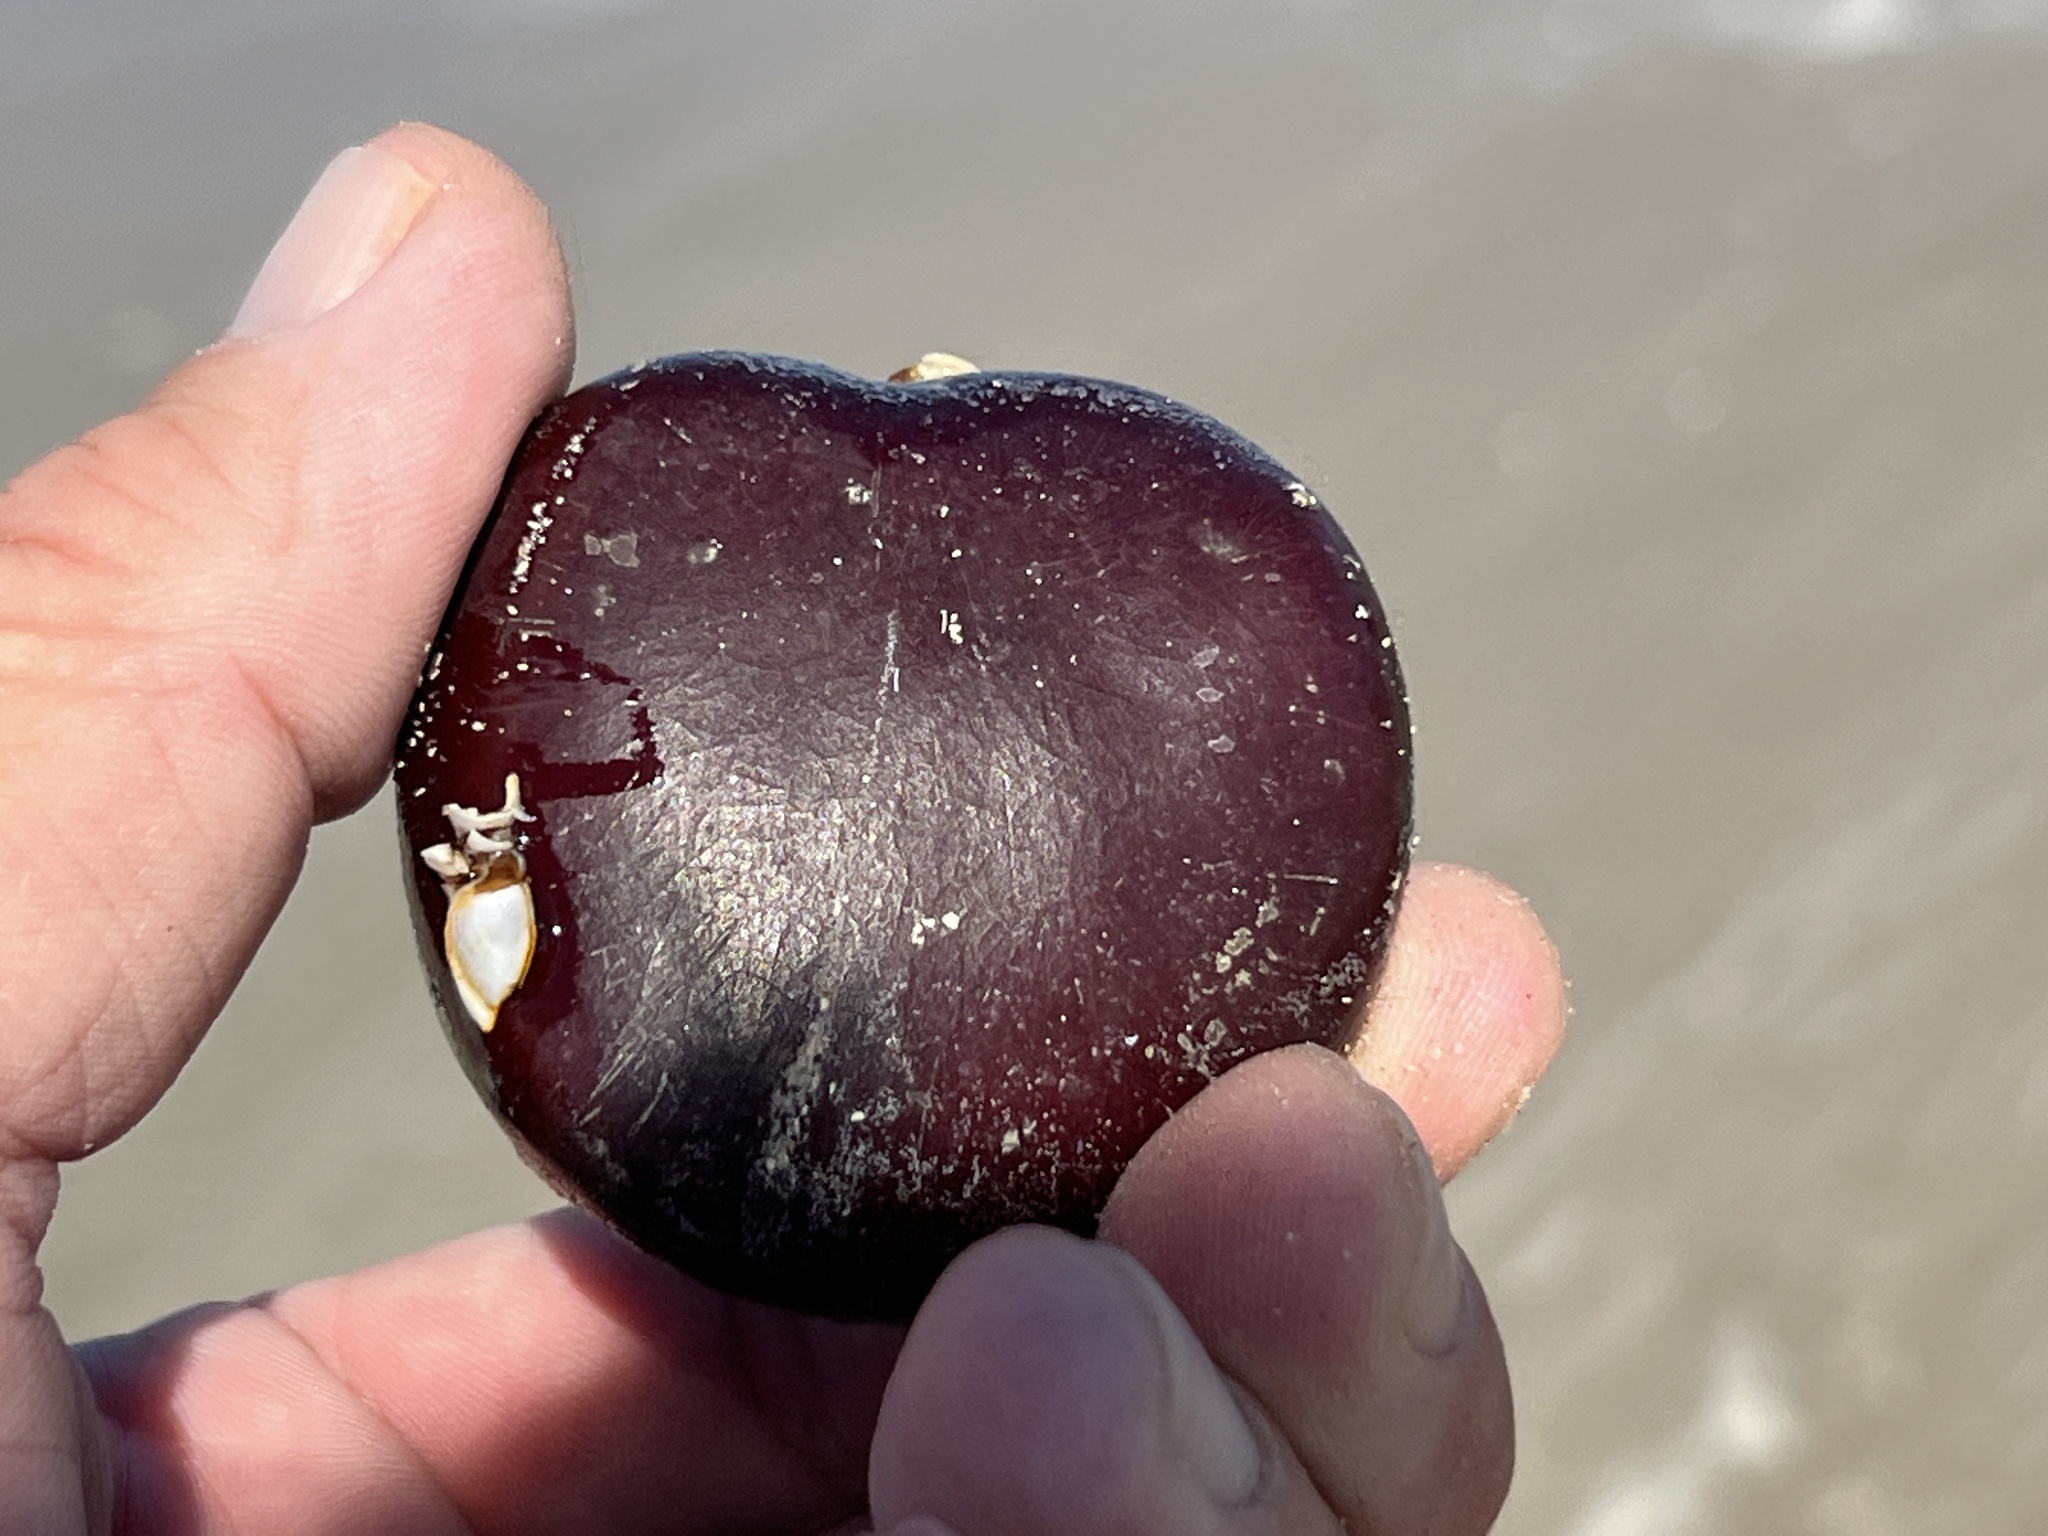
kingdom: Plantae
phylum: Tracheophyta
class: Magnoliopsida
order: Fabales
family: Fabaceae
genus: Entada
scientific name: Entada gigas
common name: Nicker-bean
